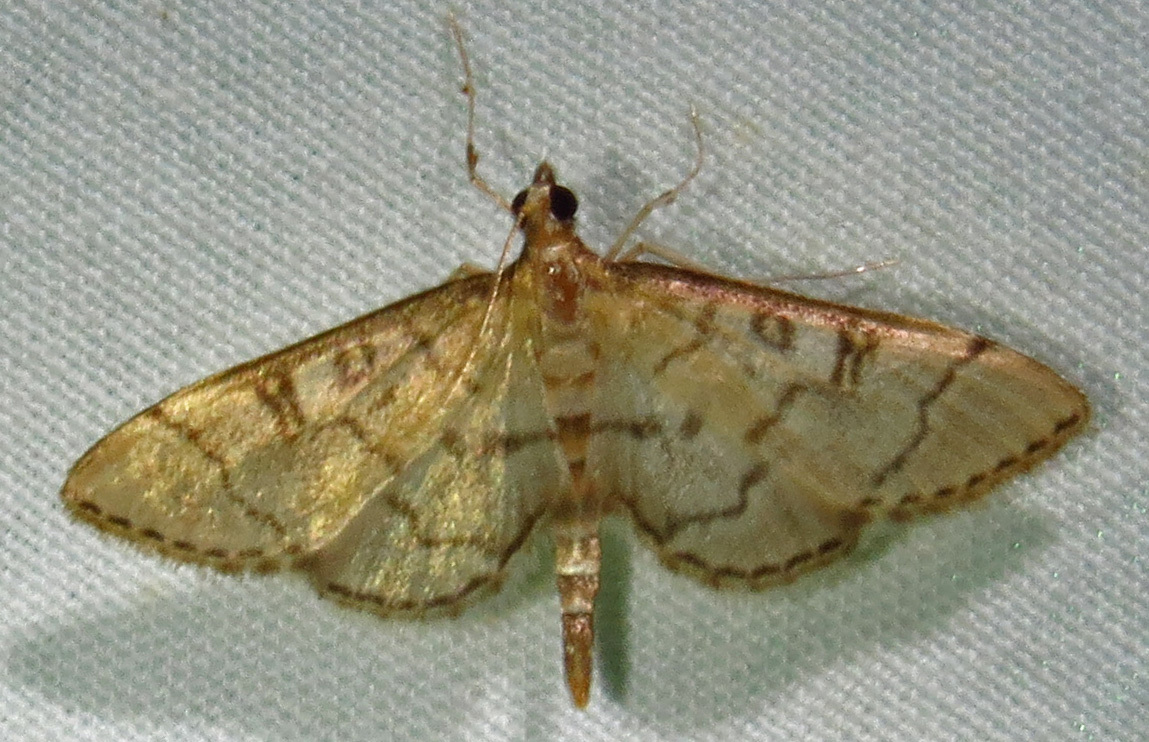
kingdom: Animalia
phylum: Arthropoda
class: Insecta
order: Lepidoptera
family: Crambidae
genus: Lamprosema
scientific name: Lamprosema Blepharomastix ranalis
